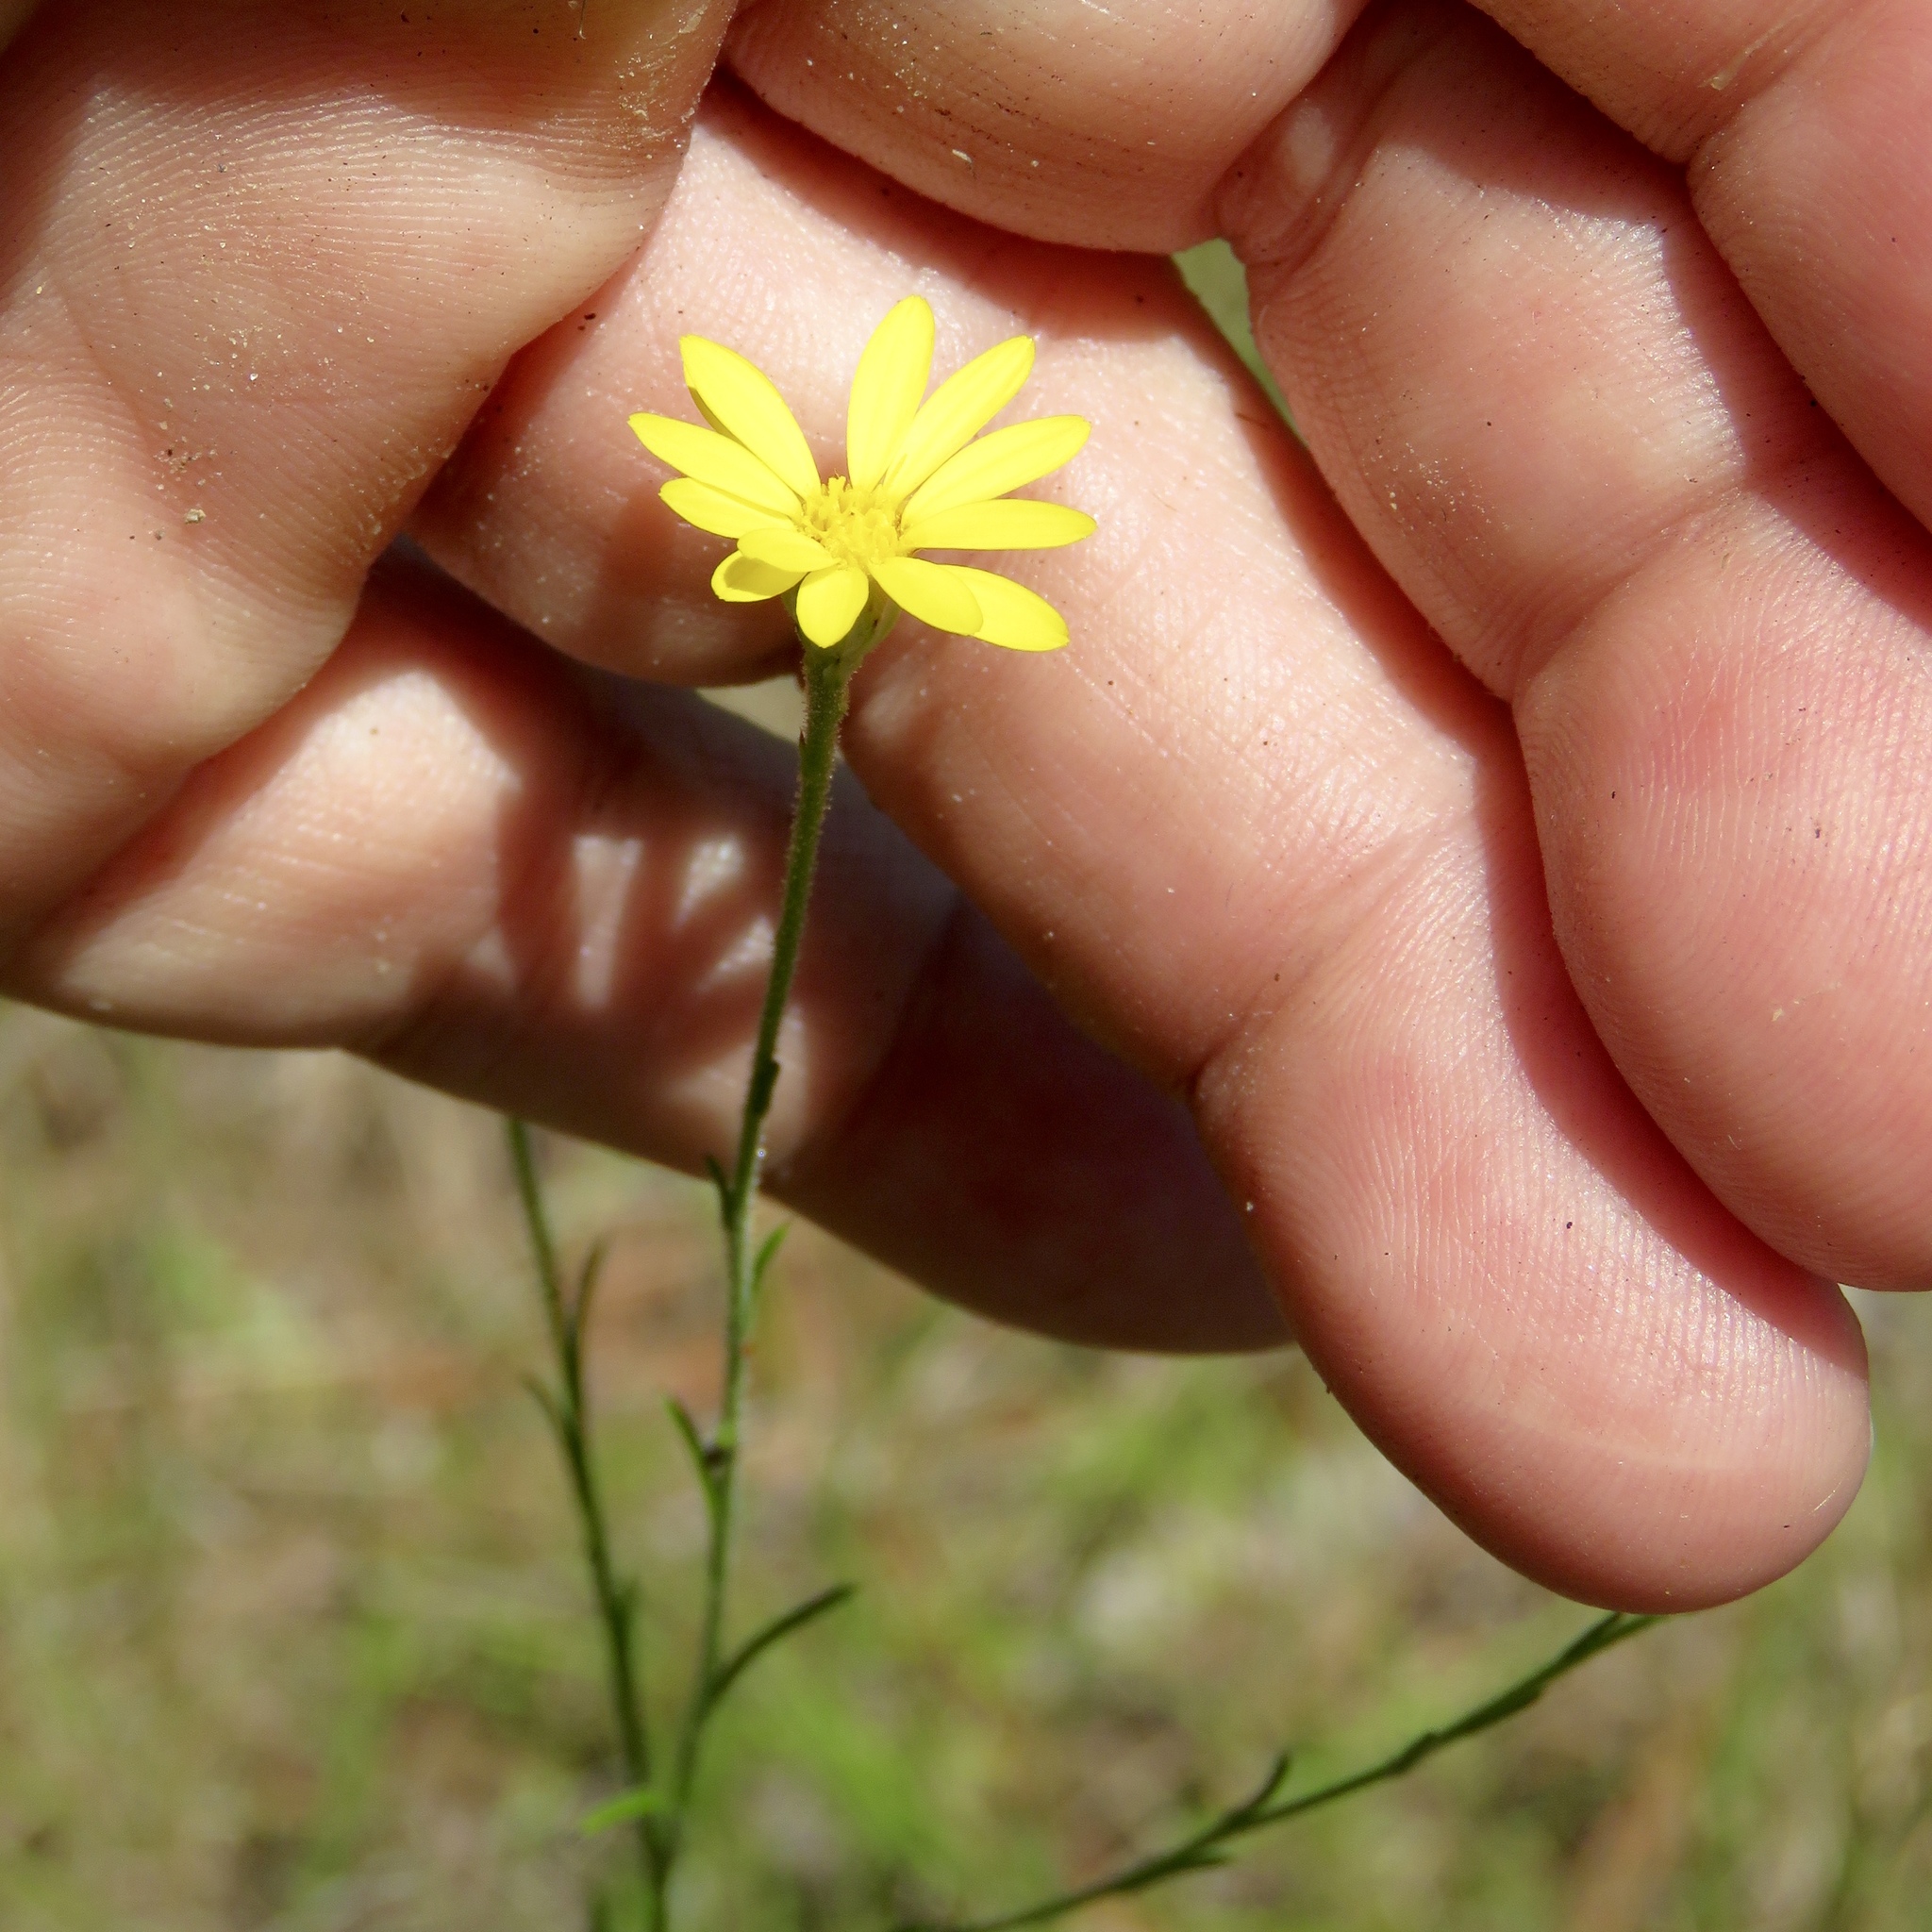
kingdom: Plantae
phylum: Tracheophyta
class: Magnoliopsida
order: Asterales
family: Asteraceae
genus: Croptilon
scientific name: Croptilon divaricatum
